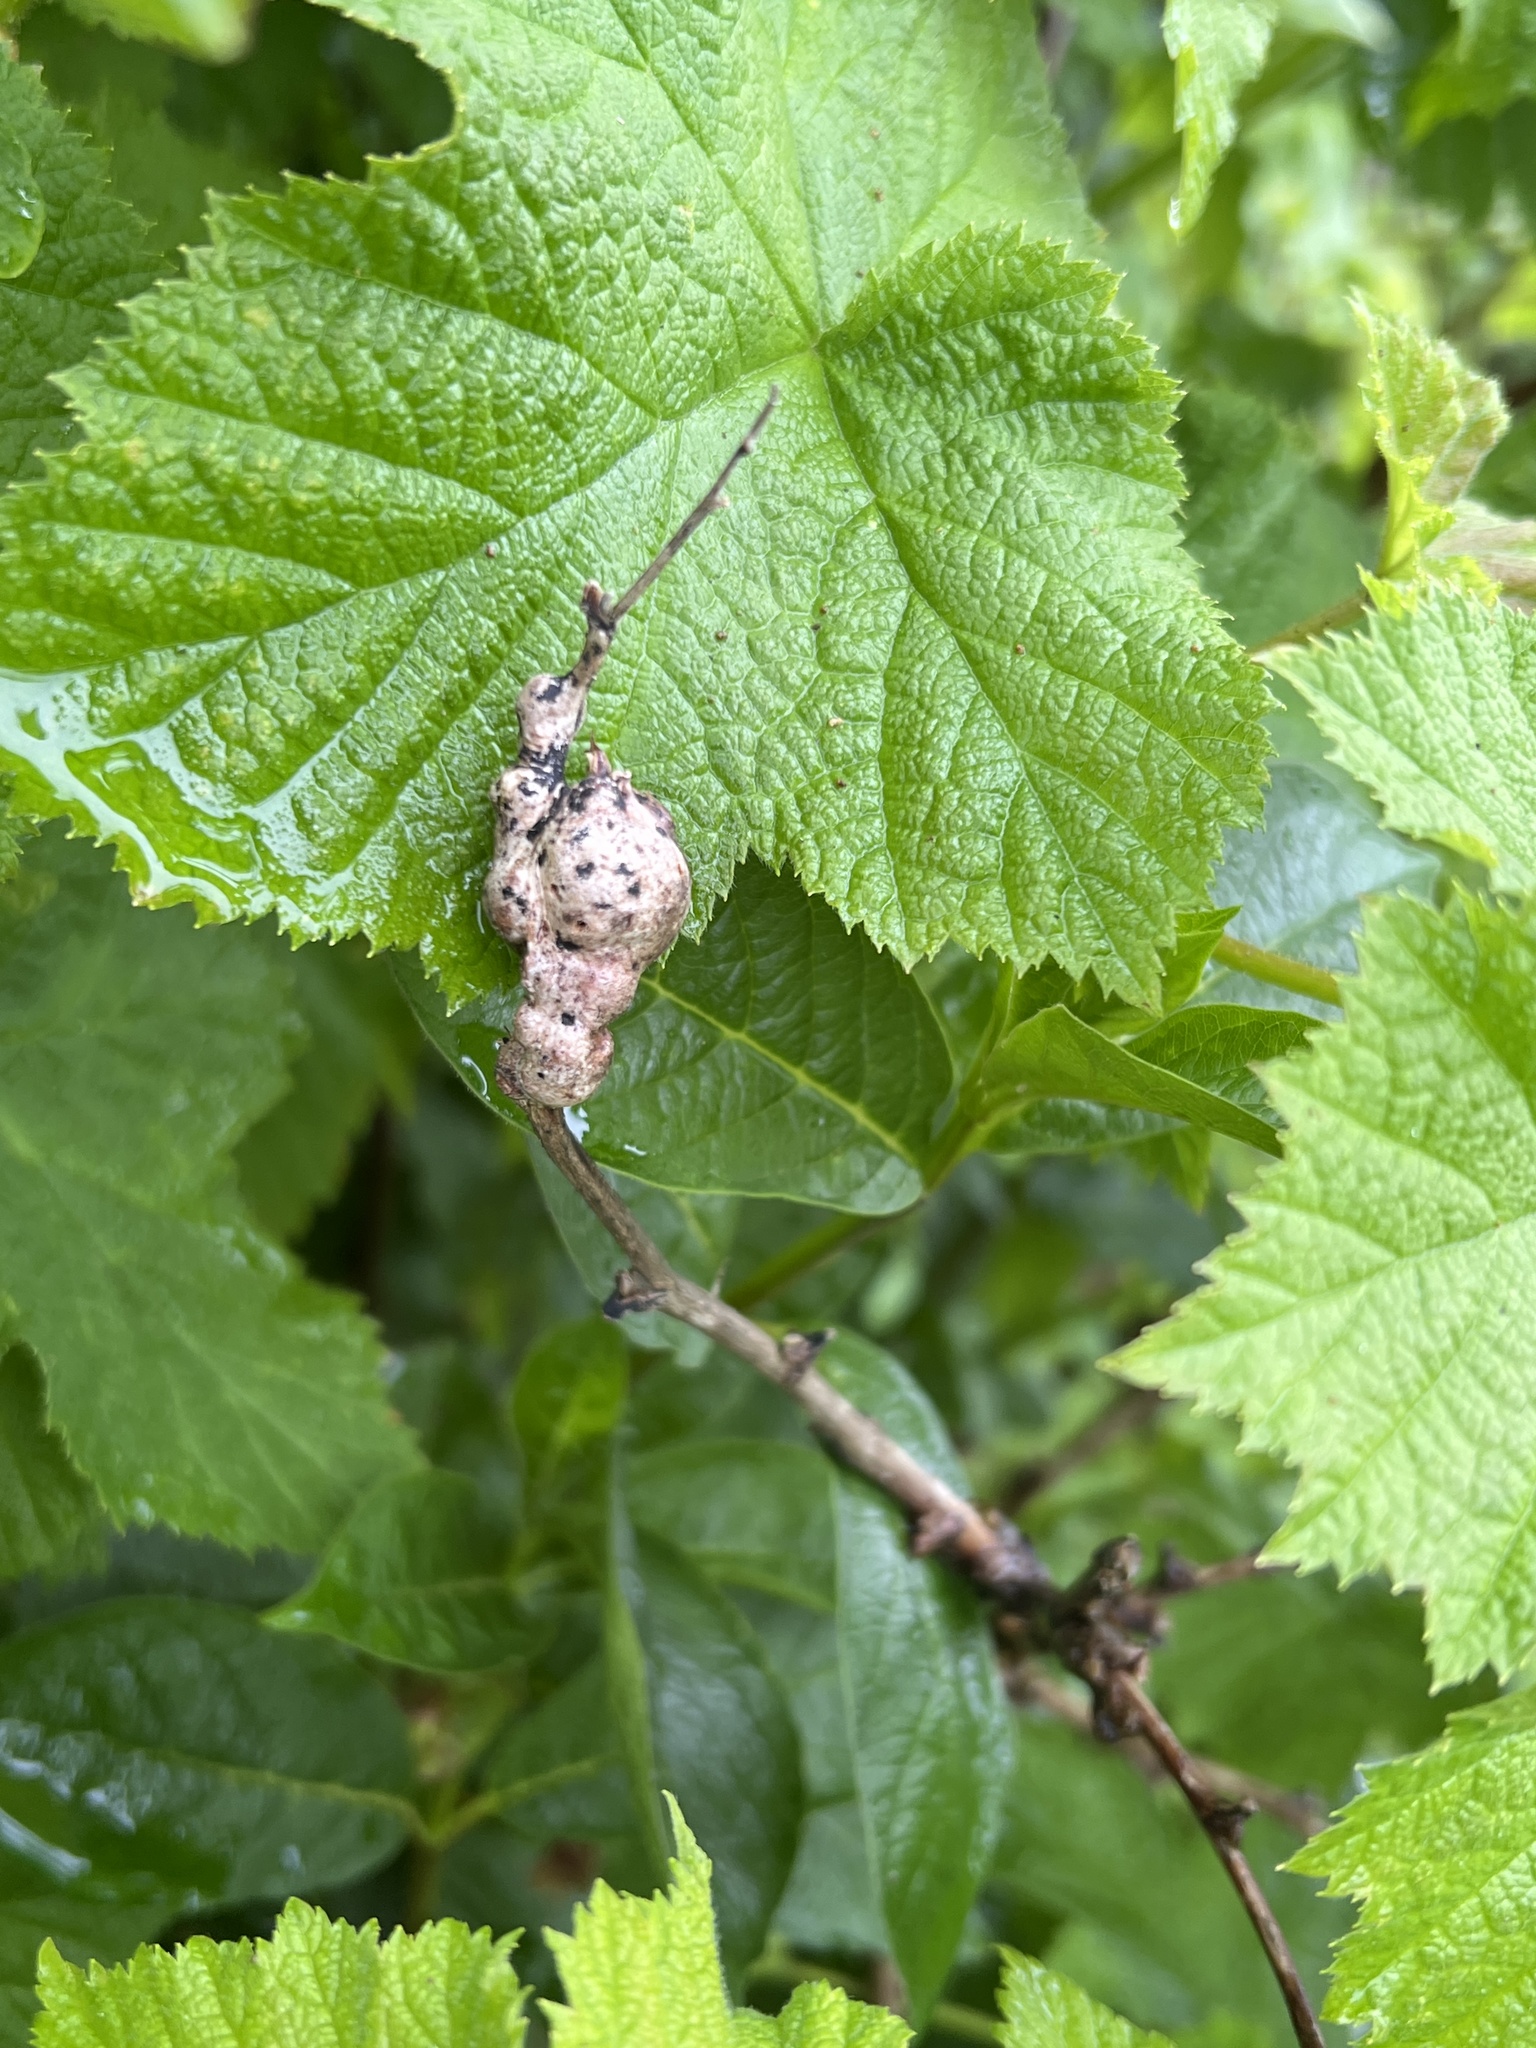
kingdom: Animalia
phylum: Arthropoda
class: Insecta
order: Hymenoptera
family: Cynipidae
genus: Diastrophus
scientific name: Diastrophus
